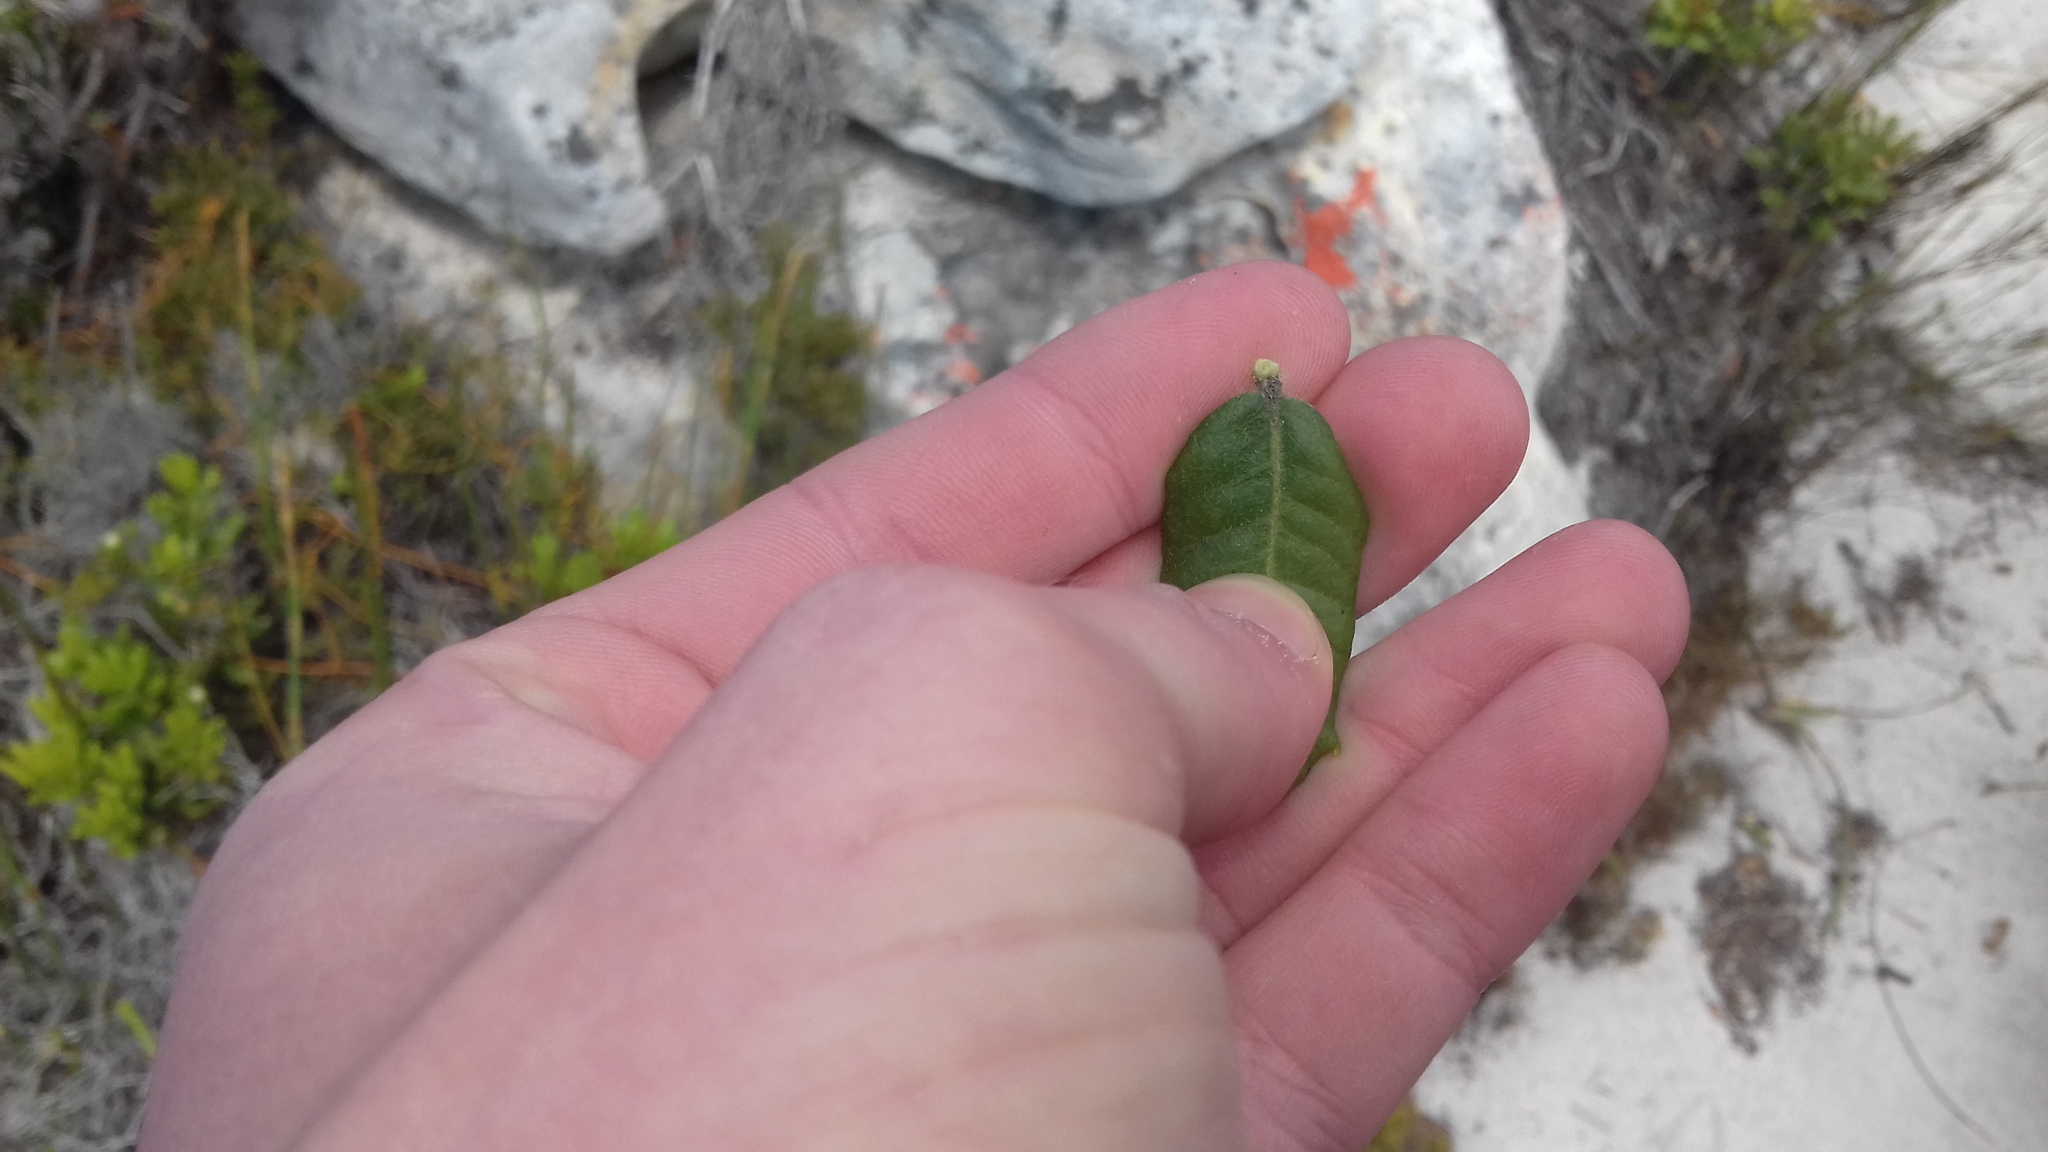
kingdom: Plantae
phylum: Tracheophyta
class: Magnoliopsida
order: Fagales
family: Myricaceae
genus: Morella
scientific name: Morella kraussiana
